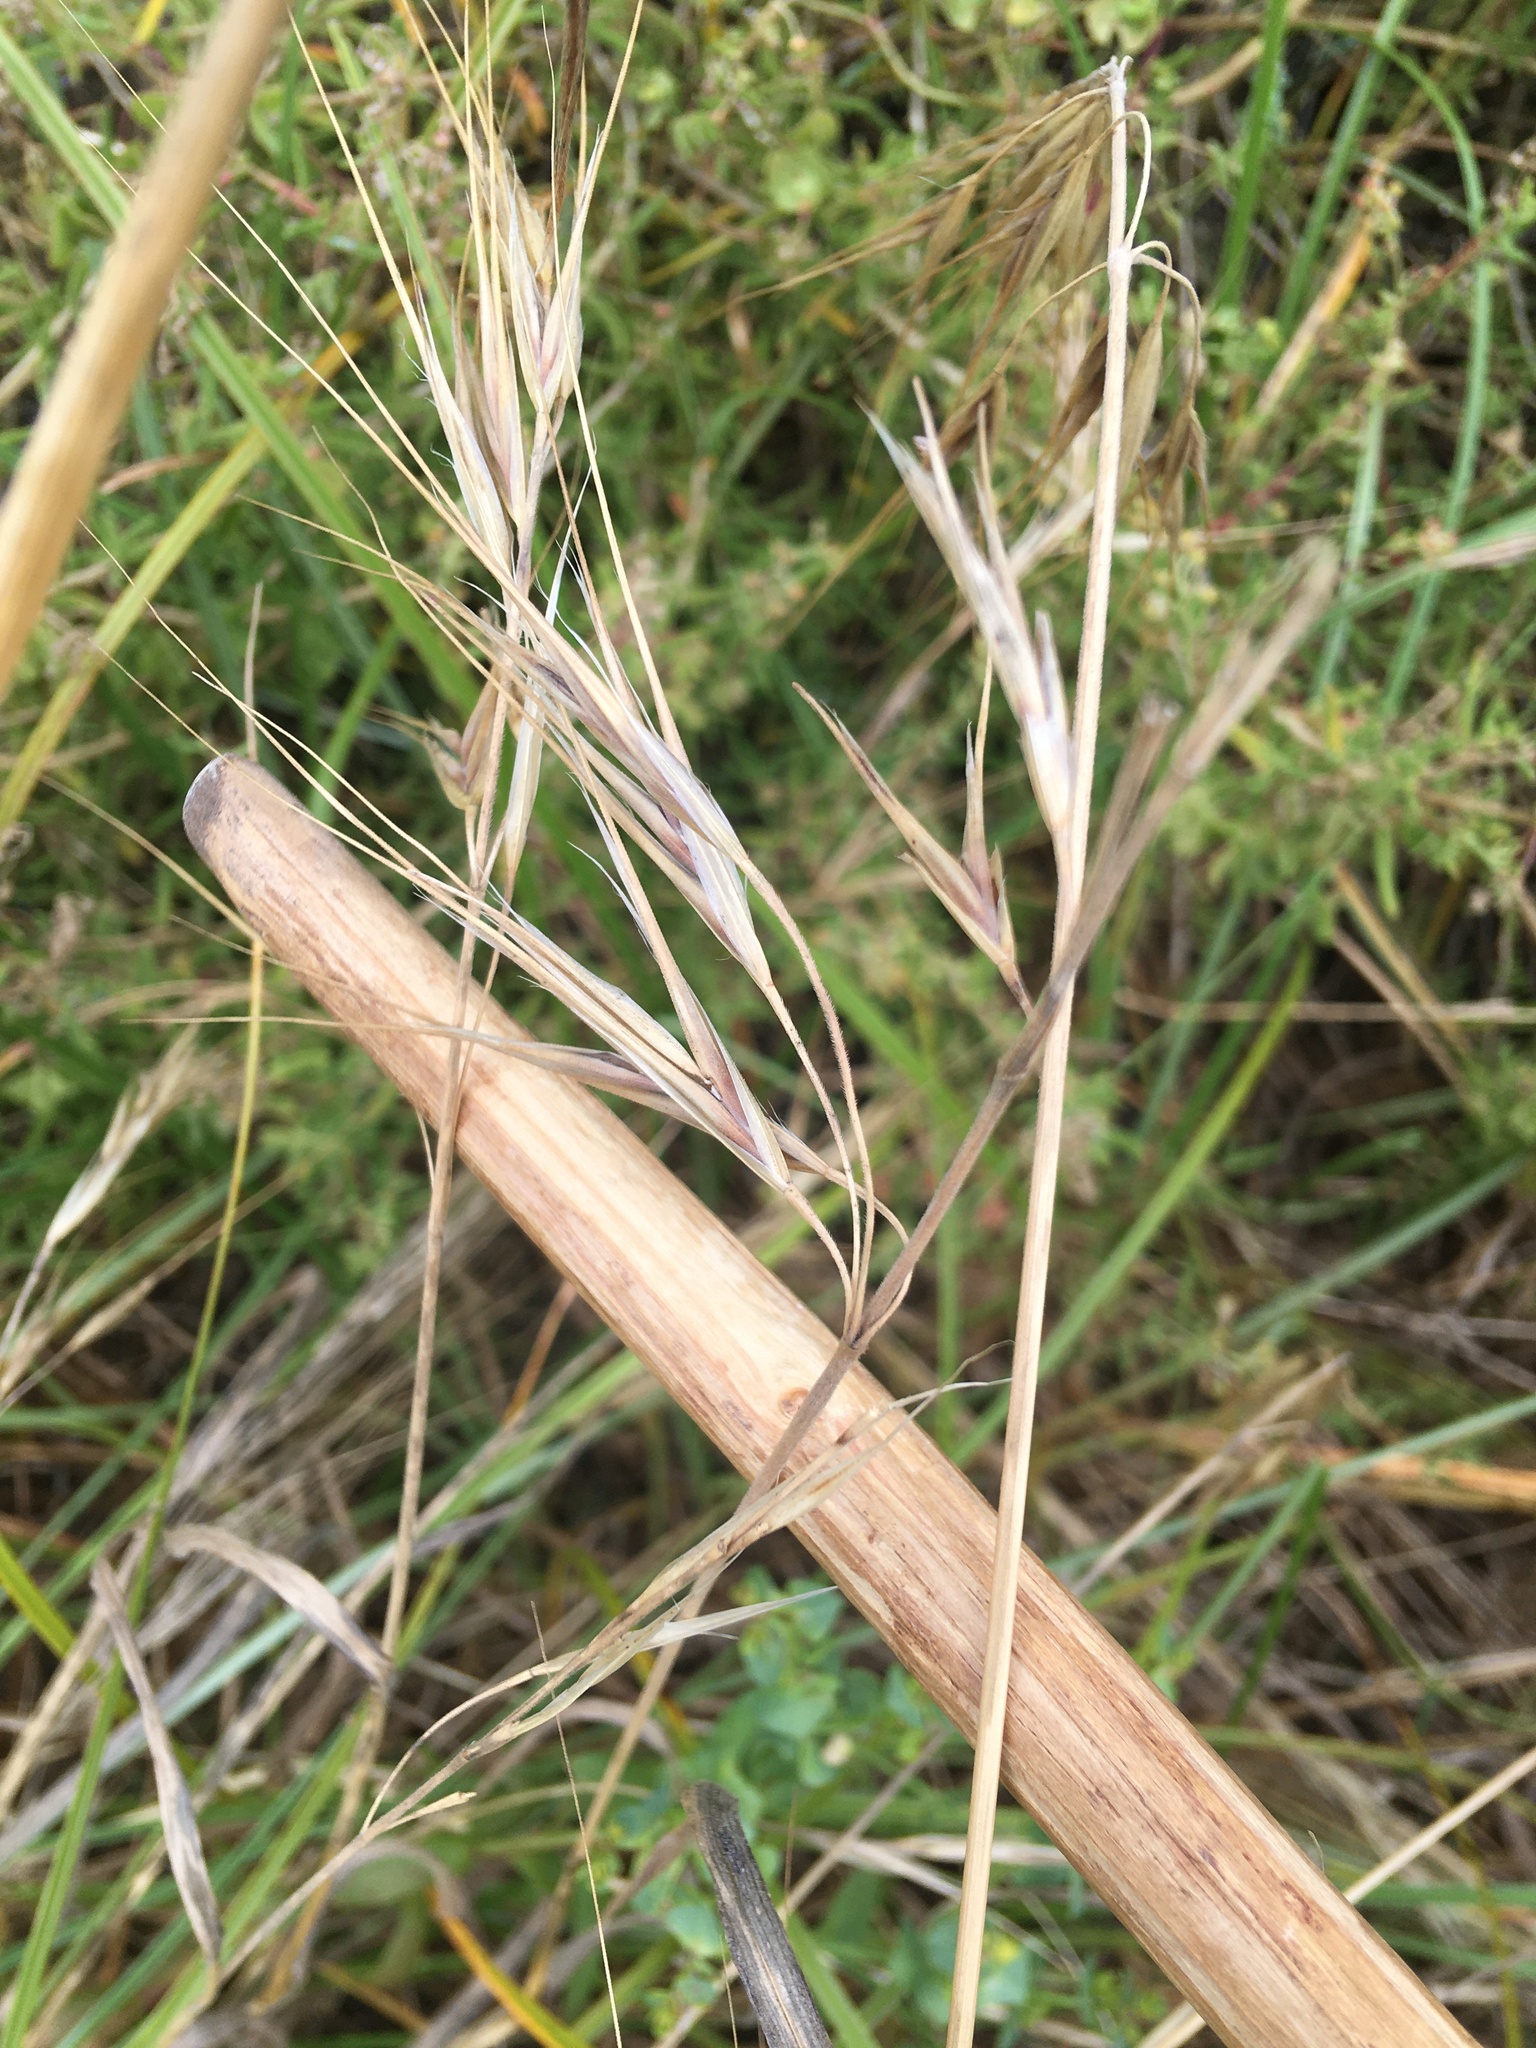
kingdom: Plantae
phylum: Tracheophyta
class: Liliopsida
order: Poales
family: Poaceae
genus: Bromus
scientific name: Bromus diandrus
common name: Ripgut brome
